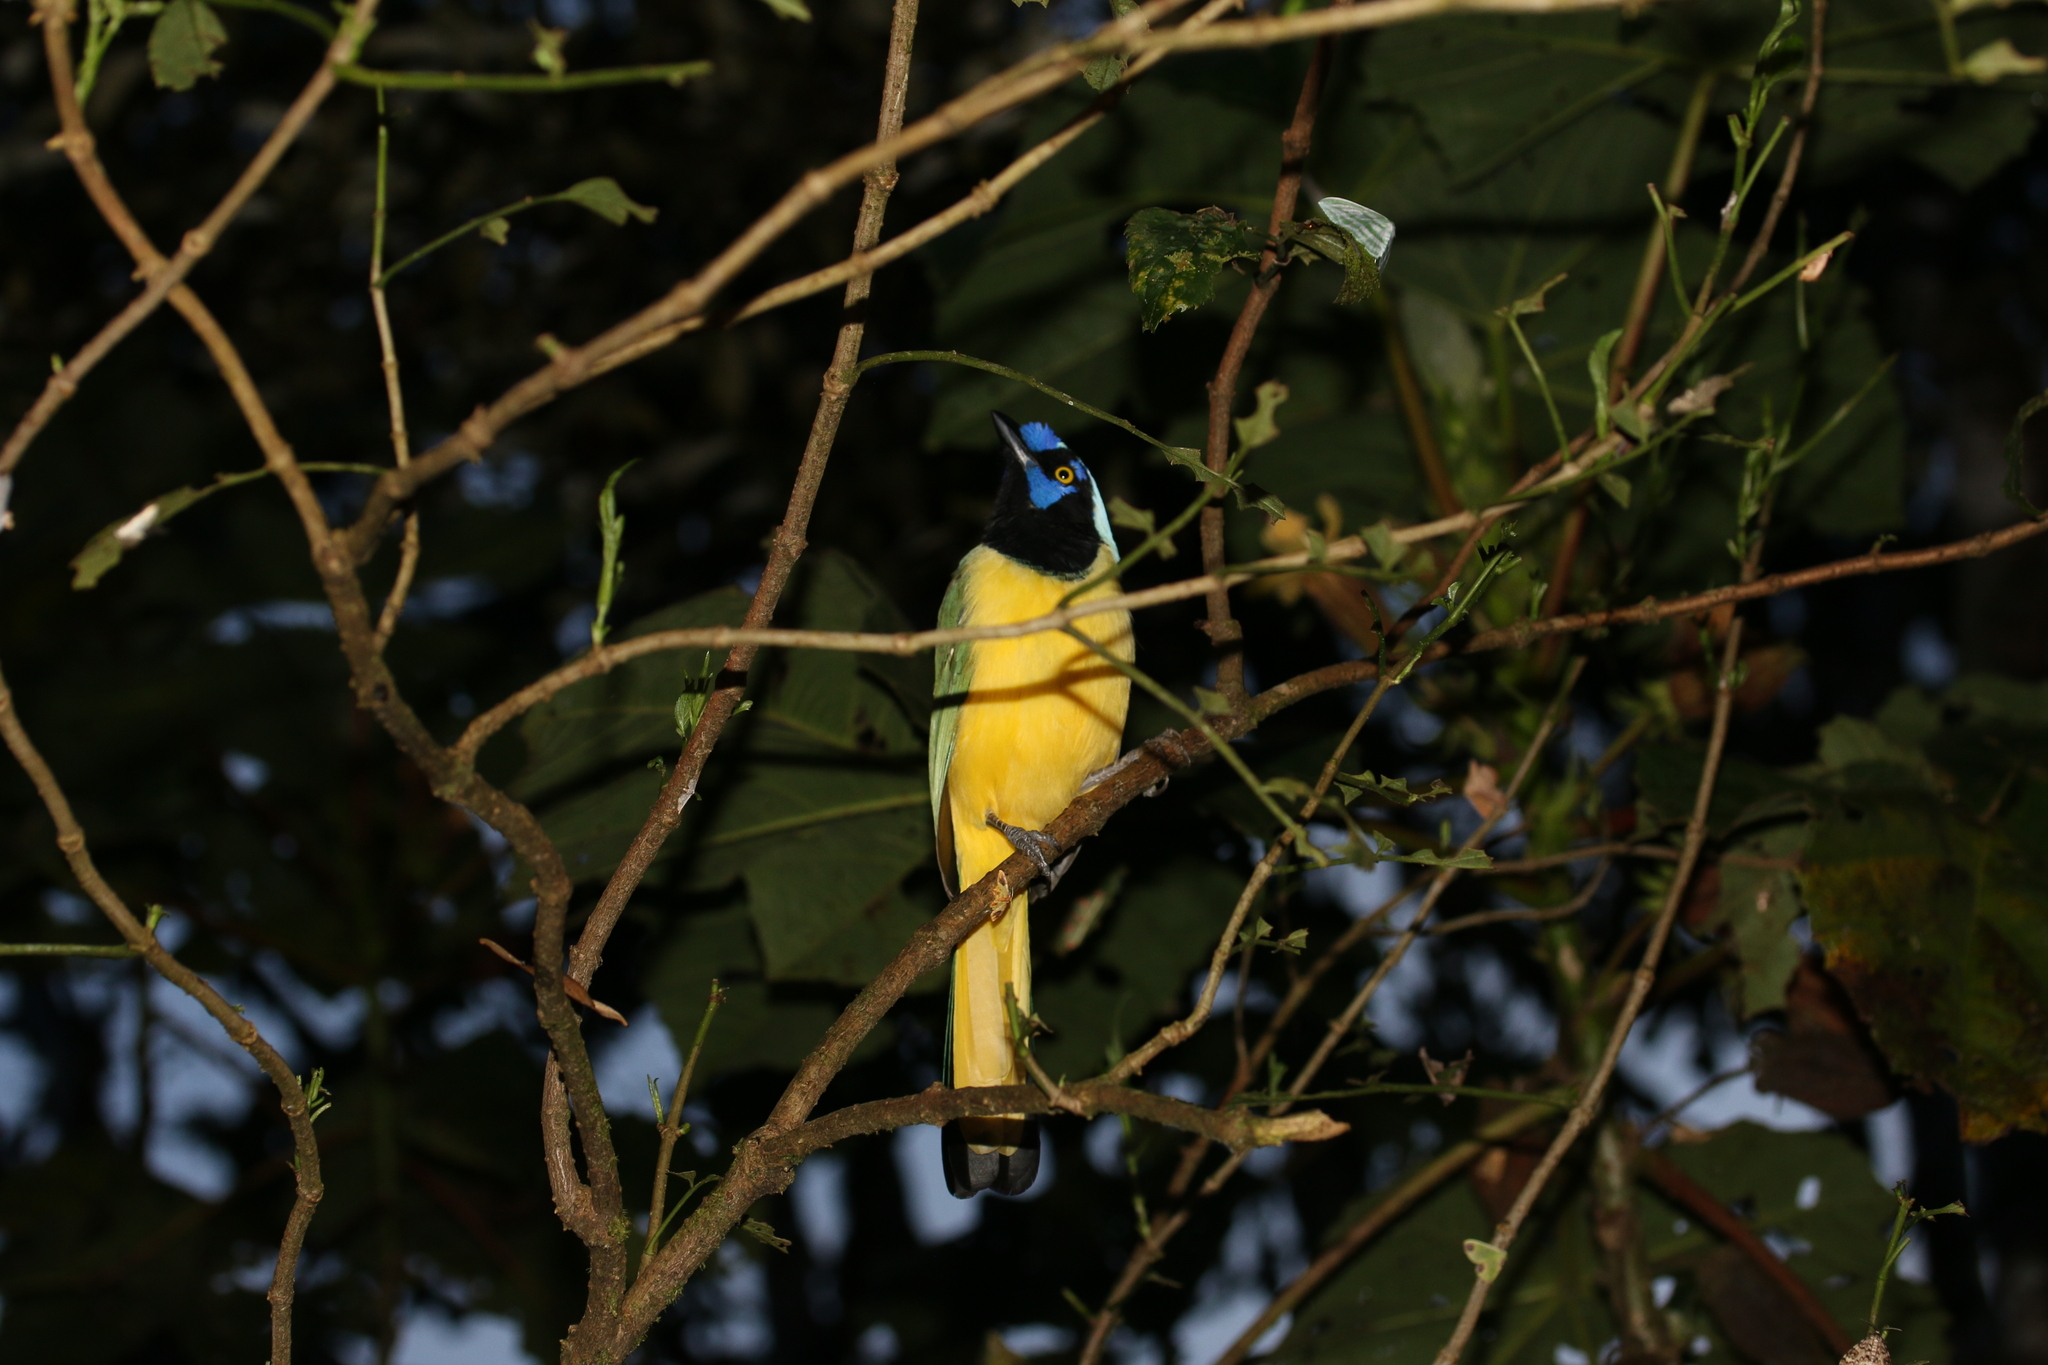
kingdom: Animalia
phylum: Chordata
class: Aves
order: Passeriformes
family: Corvidae
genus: Cyanocorax
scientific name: Cyanocorax yncas
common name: Green jay
